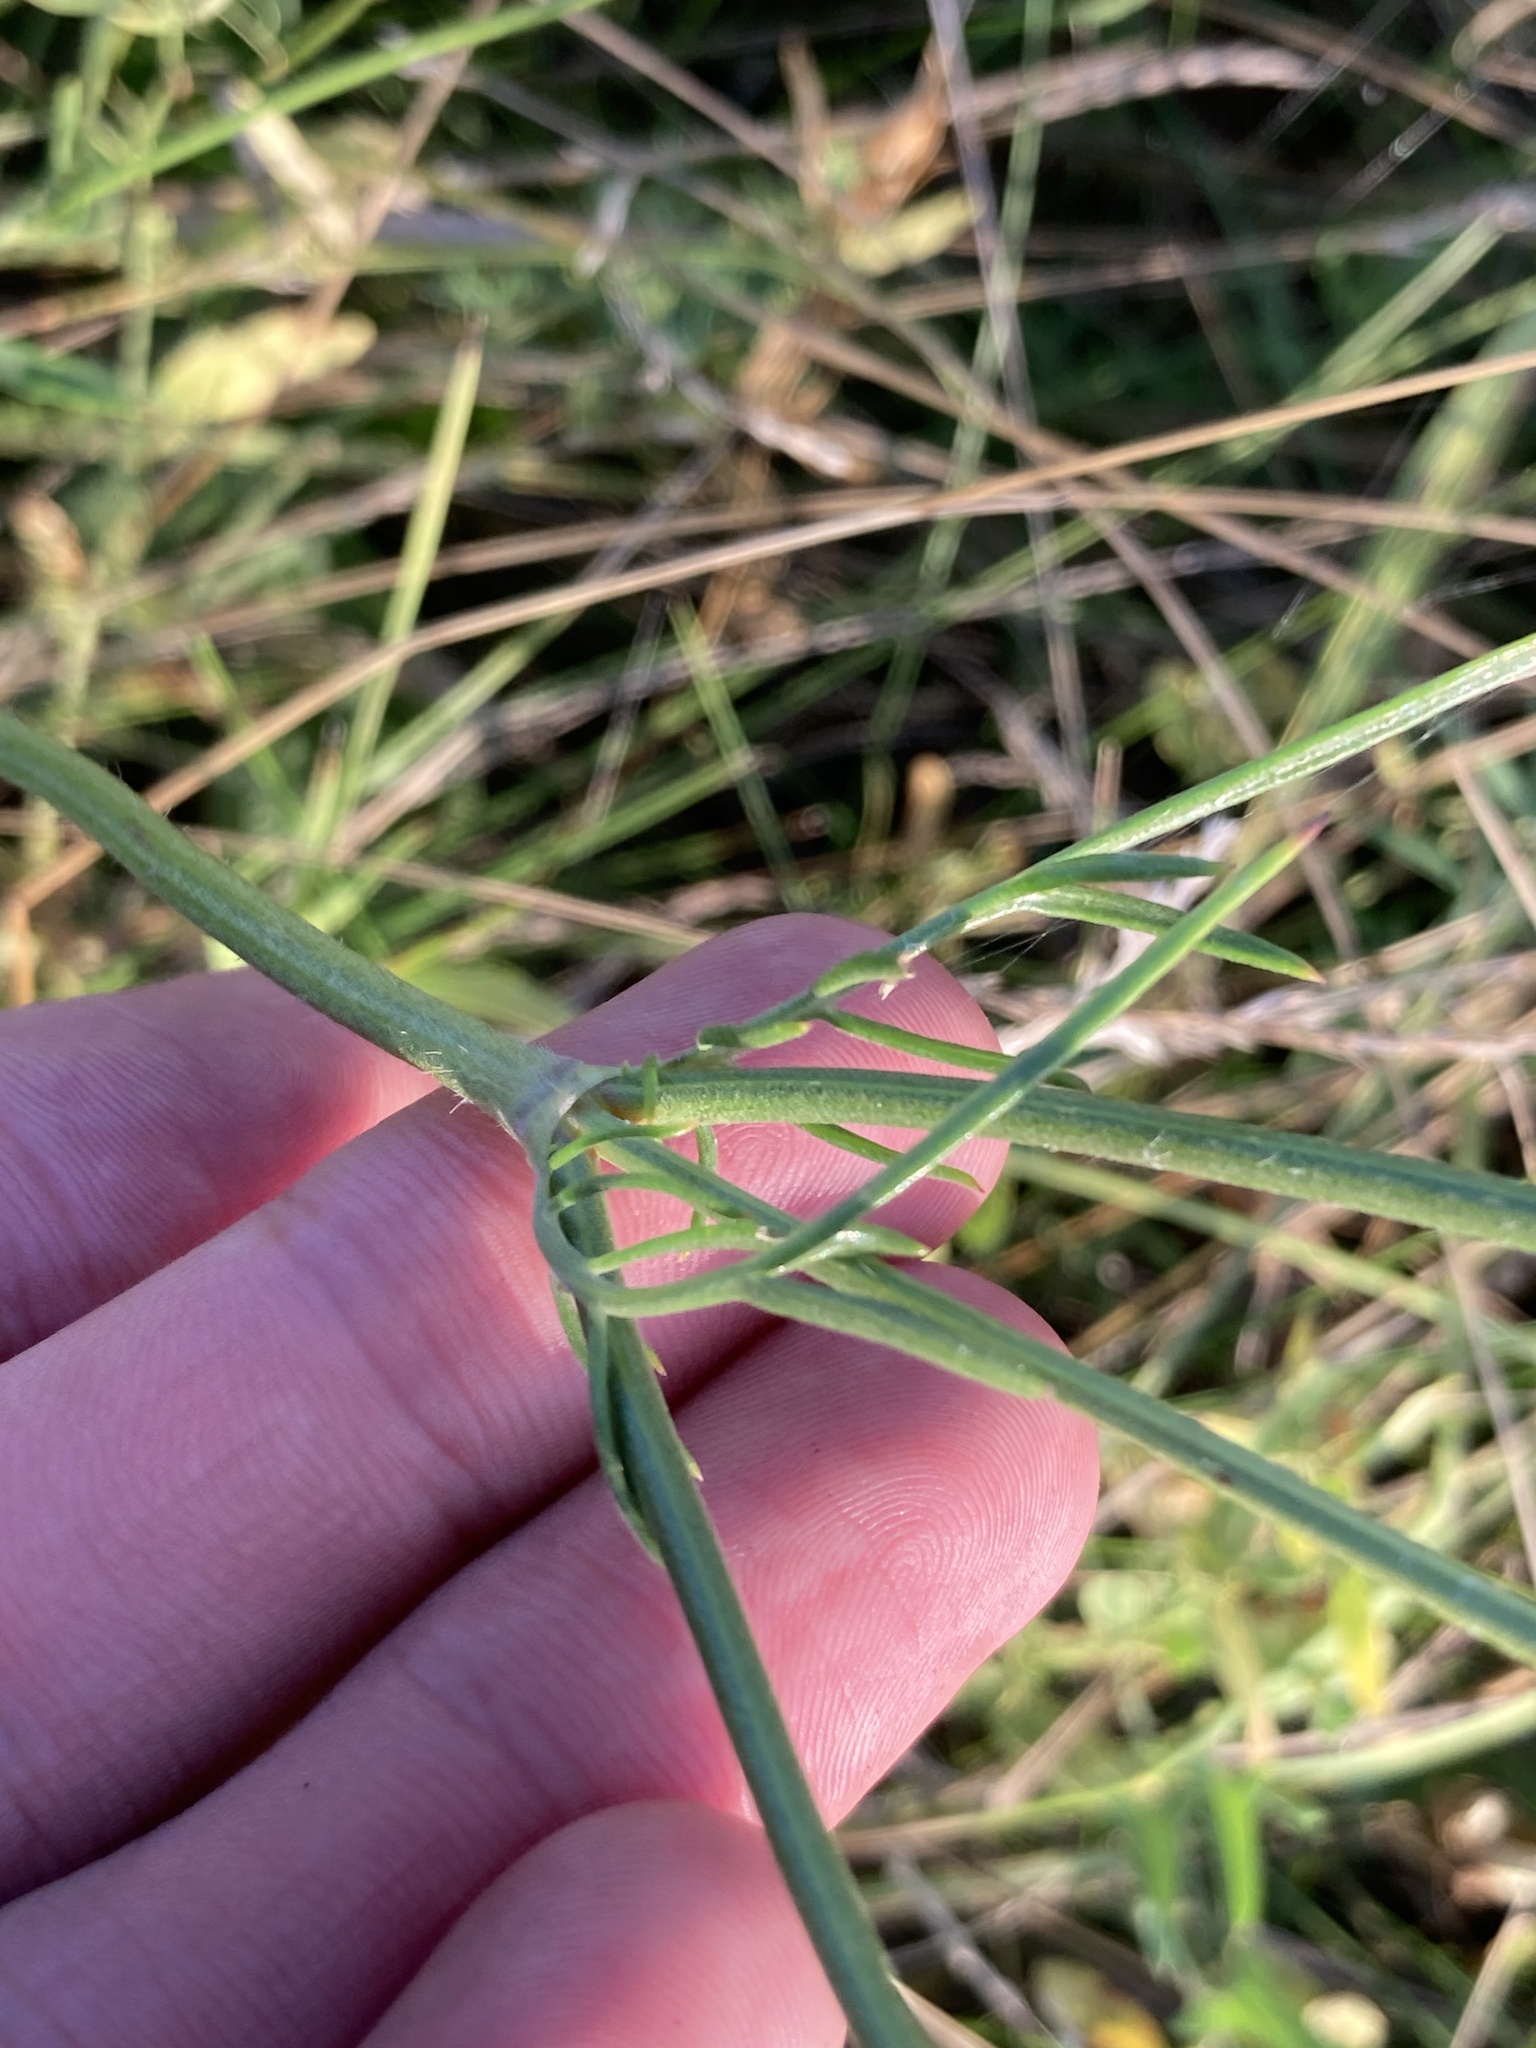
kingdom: Plantae
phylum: Tracheophyta
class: Magnoliopsida
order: Dipsacales
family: Caprifoliaceae
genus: Cephalaria
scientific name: Cephalaria uralensis
